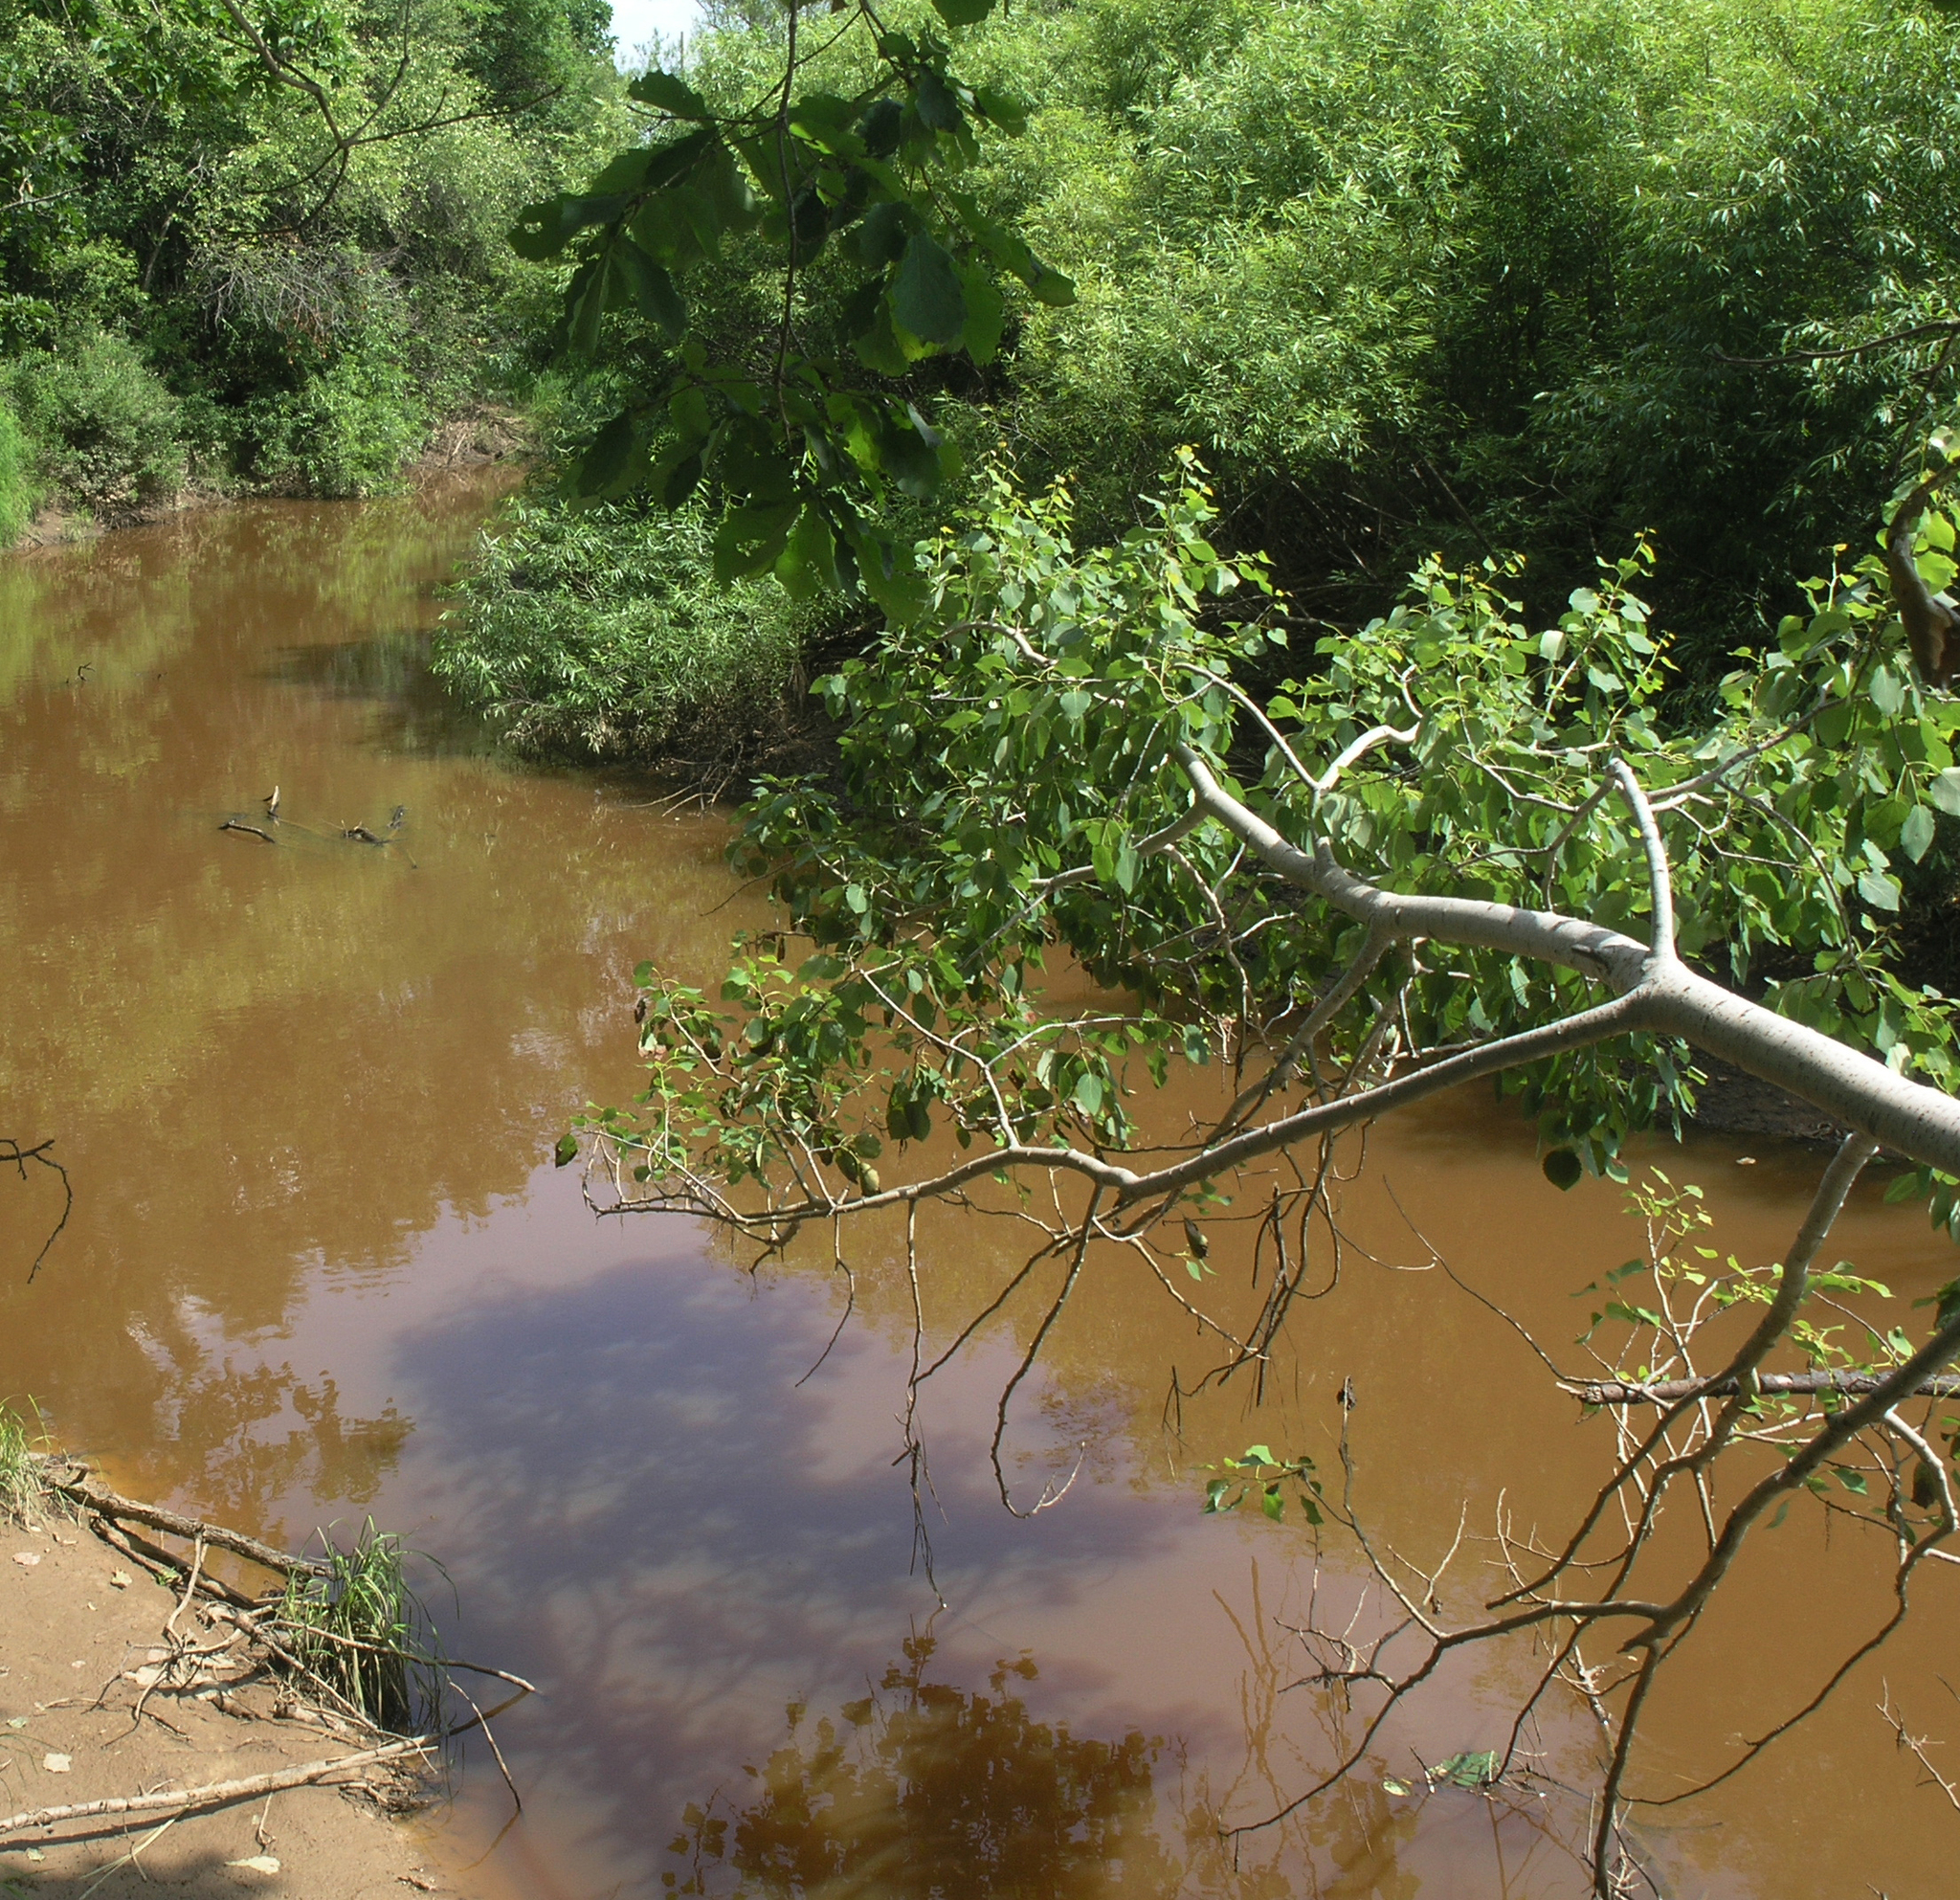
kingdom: Plantae
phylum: Tracheophyta
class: Magnoliopsida
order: Malpighiales
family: Salicaceae
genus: Populus
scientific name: Populus tremula
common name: European aspen
